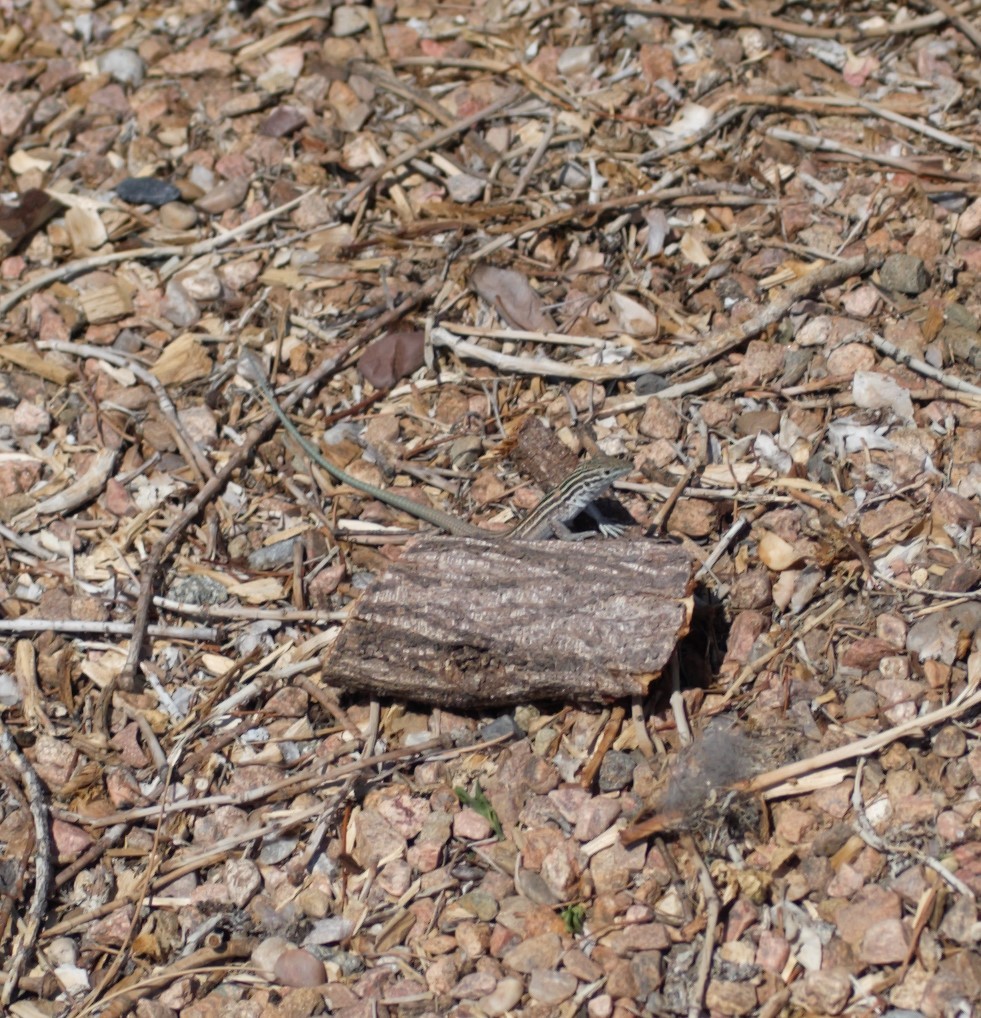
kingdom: Animalia
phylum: Chordata
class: Squamata
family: Teiidae
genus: Aspidoscelis
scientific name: Aspidoscelis neomexicanus
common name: New mexico whiptail
